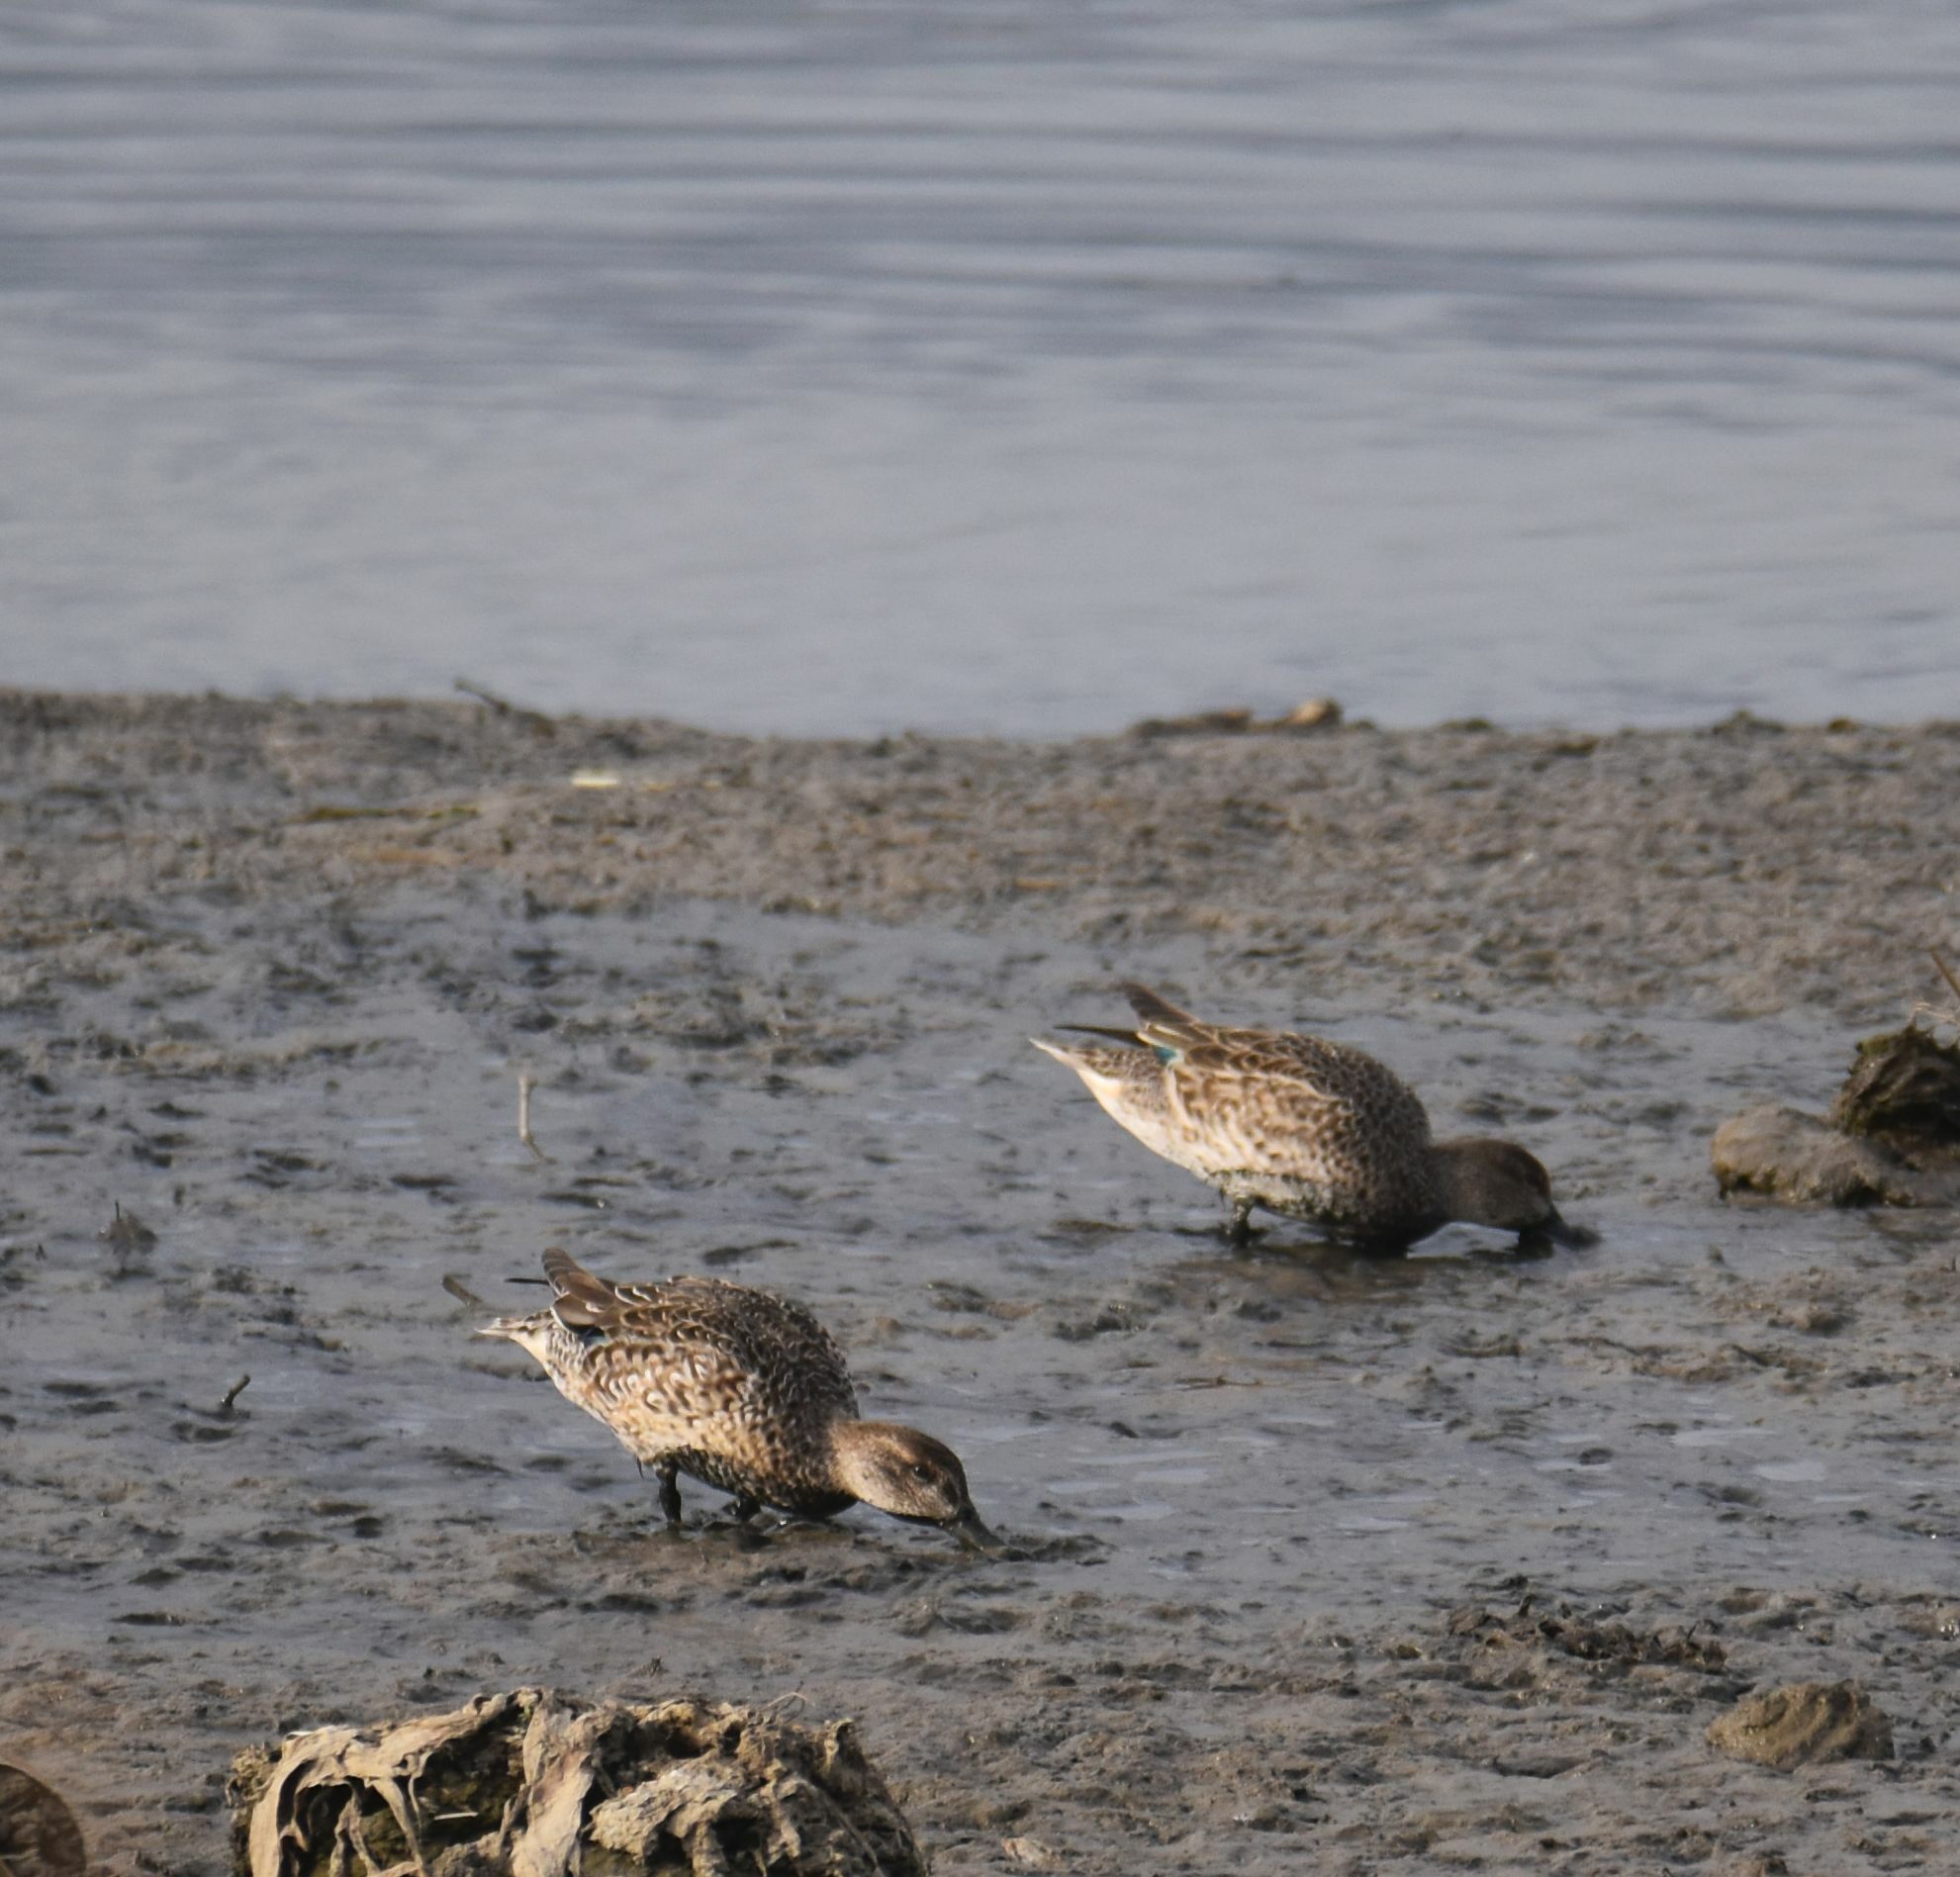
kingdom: Animalia
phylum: Chordata
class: Aves
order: Anseriformes
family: Anatidae
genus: Anas
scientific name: Anas crecca
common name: Eurasian teal
